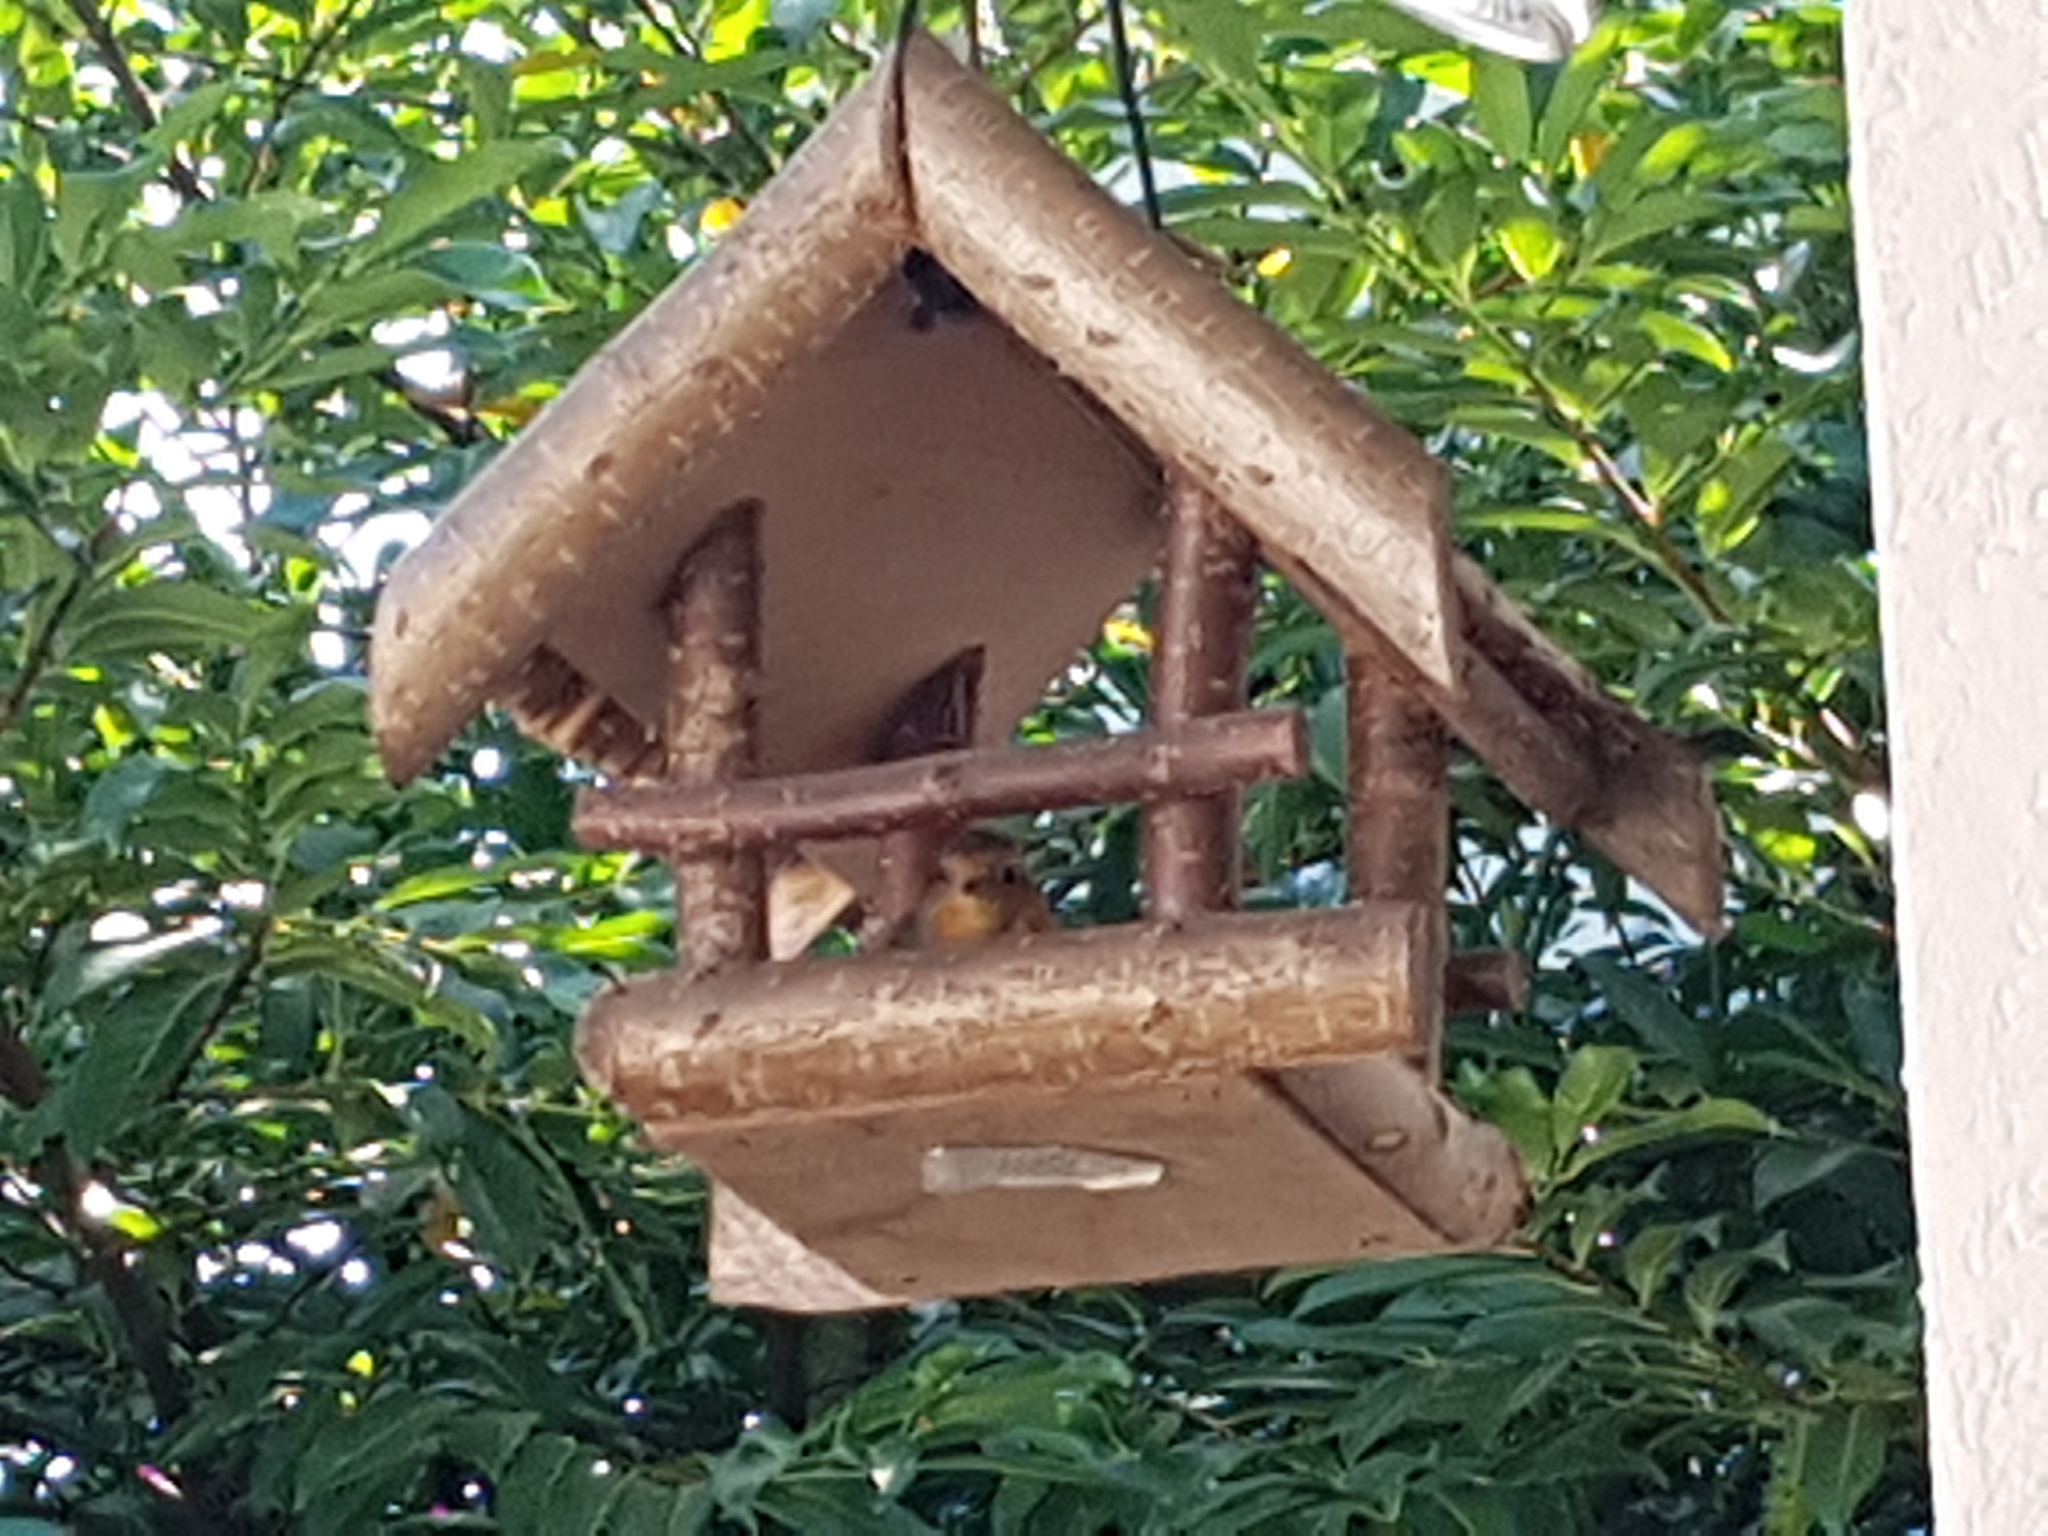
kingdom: Animalia
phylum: Chordata
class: Aves
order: Passeriformes
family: Muscicapidae
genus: Erithacus
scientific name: Erithacus rubecula
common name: European robin
